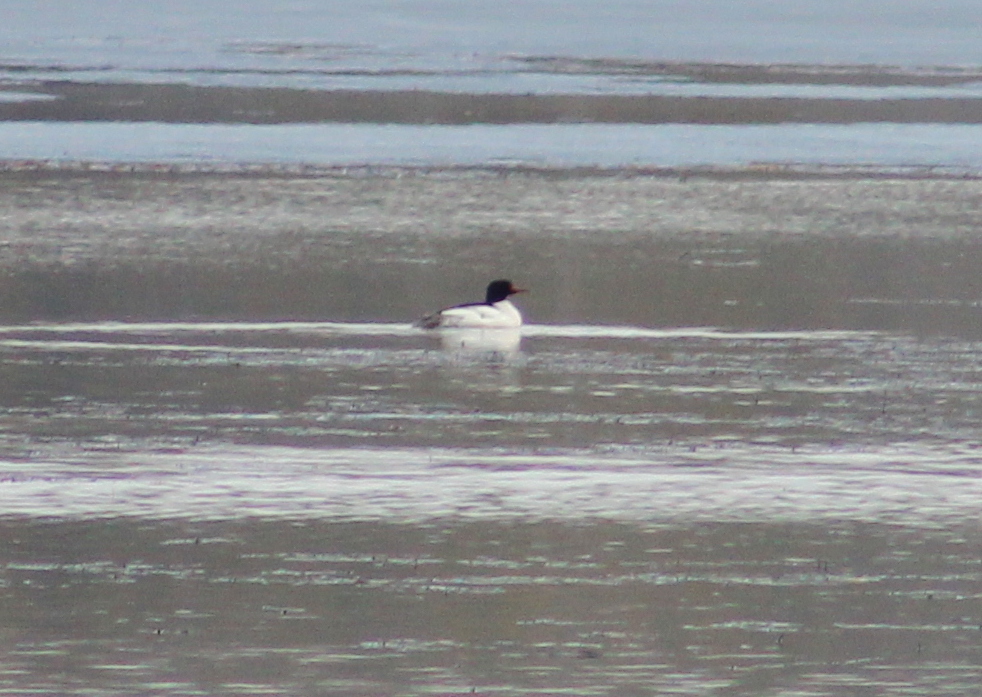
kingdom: Animalia
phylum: Chordata
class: Aves
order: Anseriformes
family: Anatidae
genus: Mergus
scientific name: Mergus merganser
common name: Common merganser
